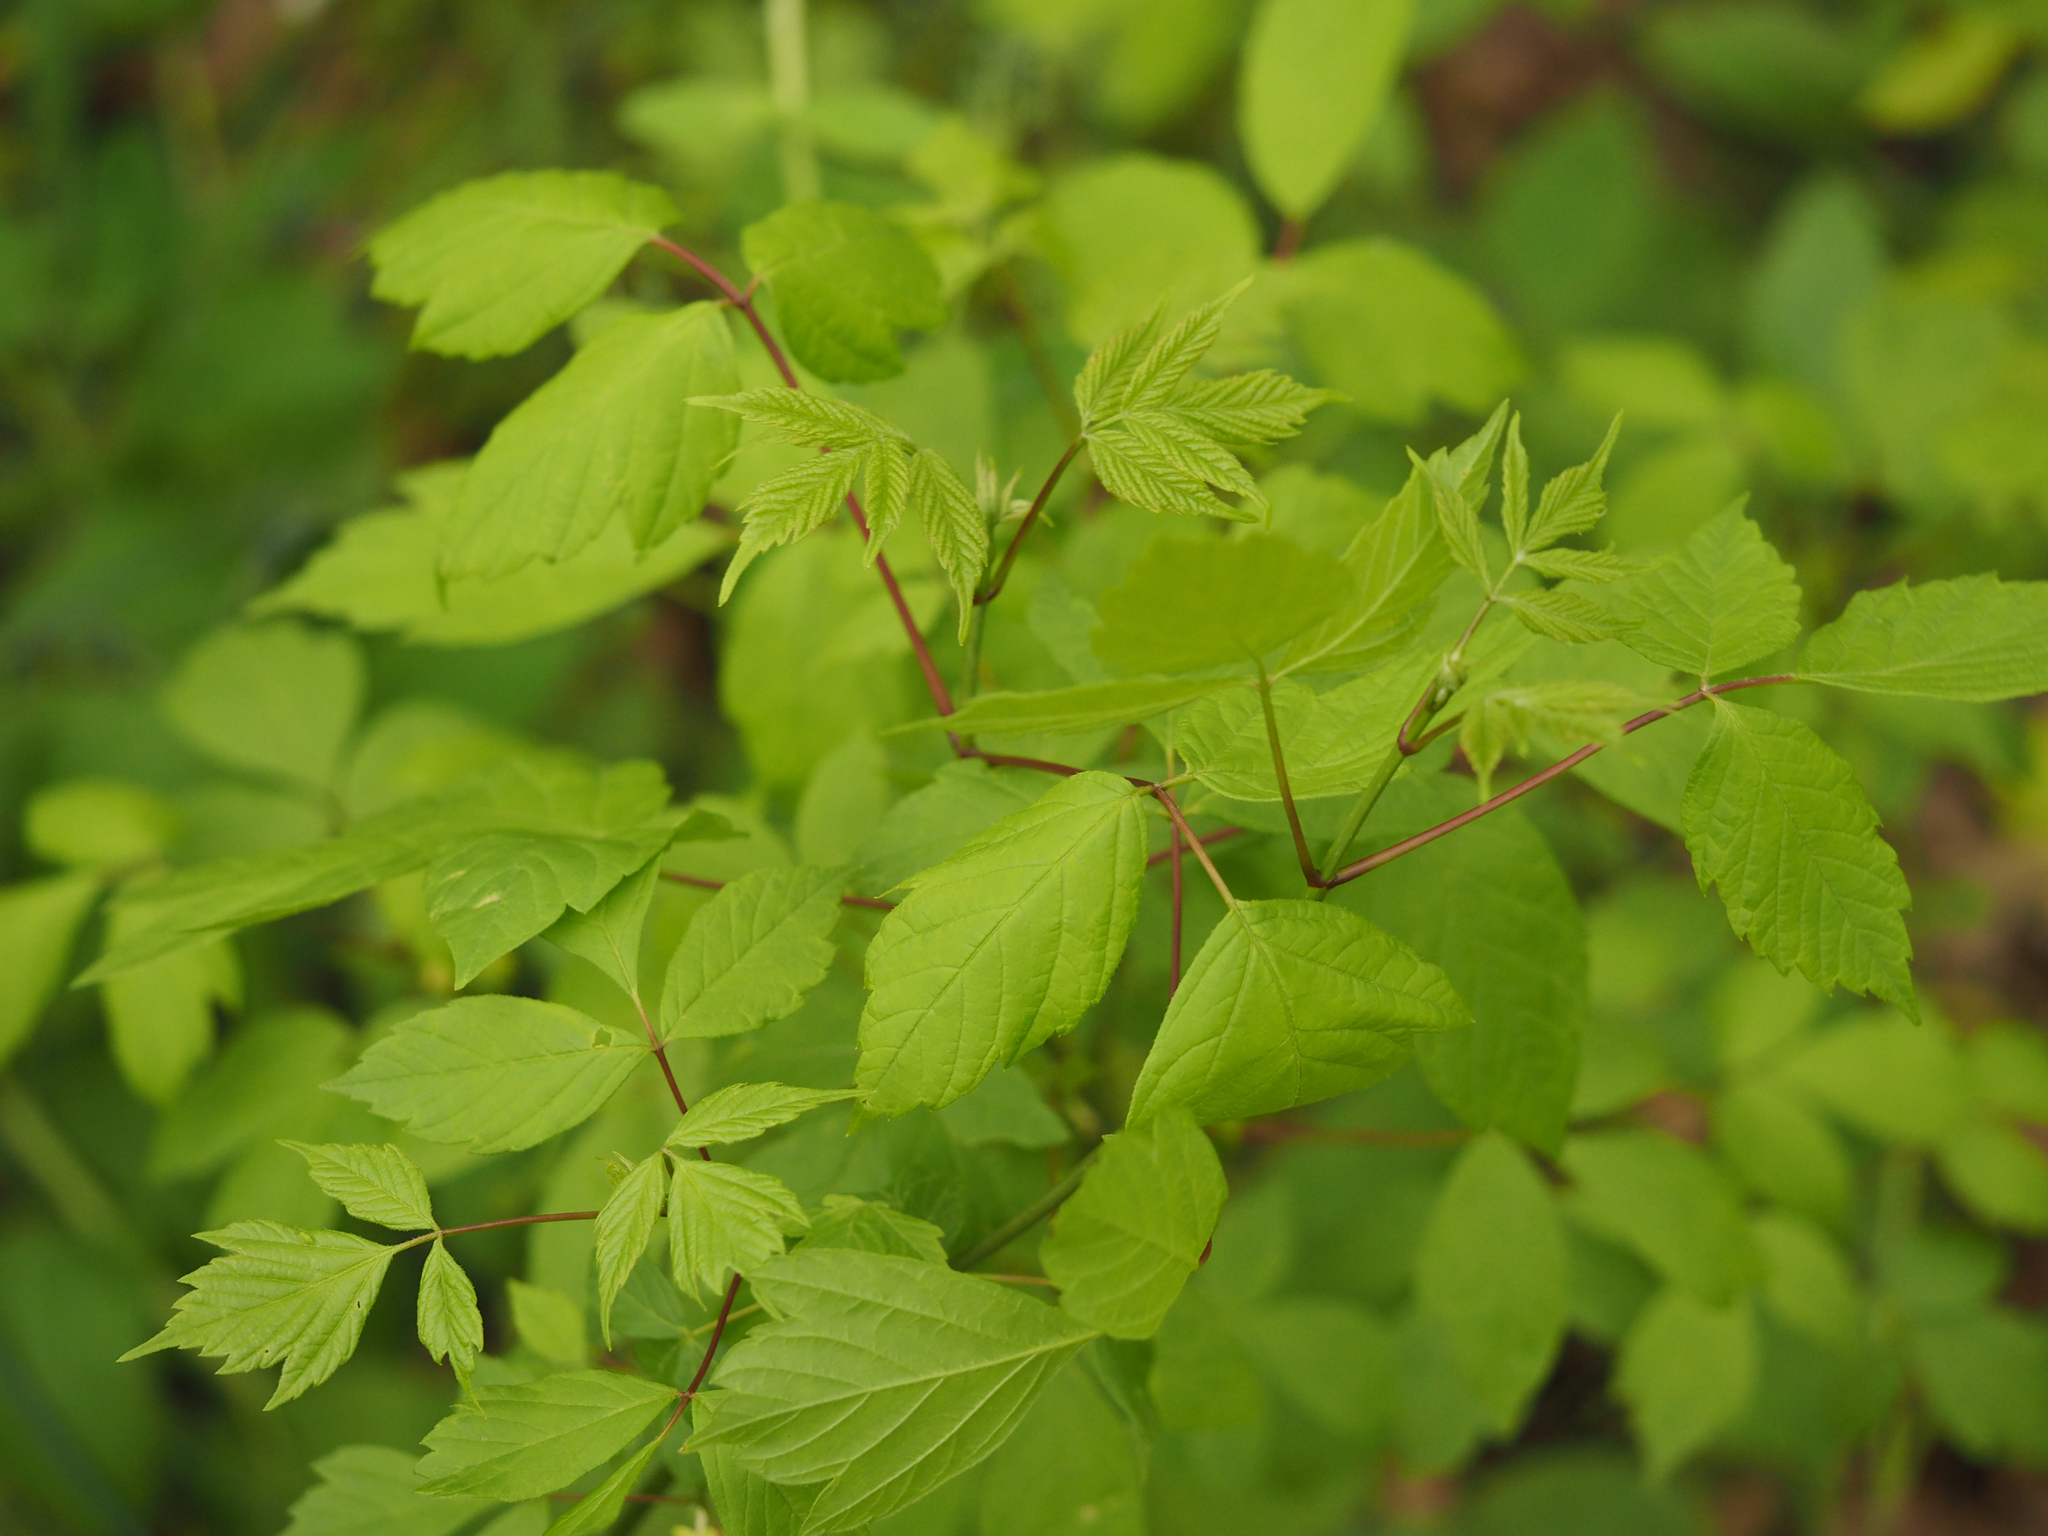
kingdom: Plantae
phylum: Tracheophyta
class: Magnoliopsida
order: Sapindales
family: Sapindaceae
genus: Acer
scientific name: Acer negundo
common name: Ashleaf maple
